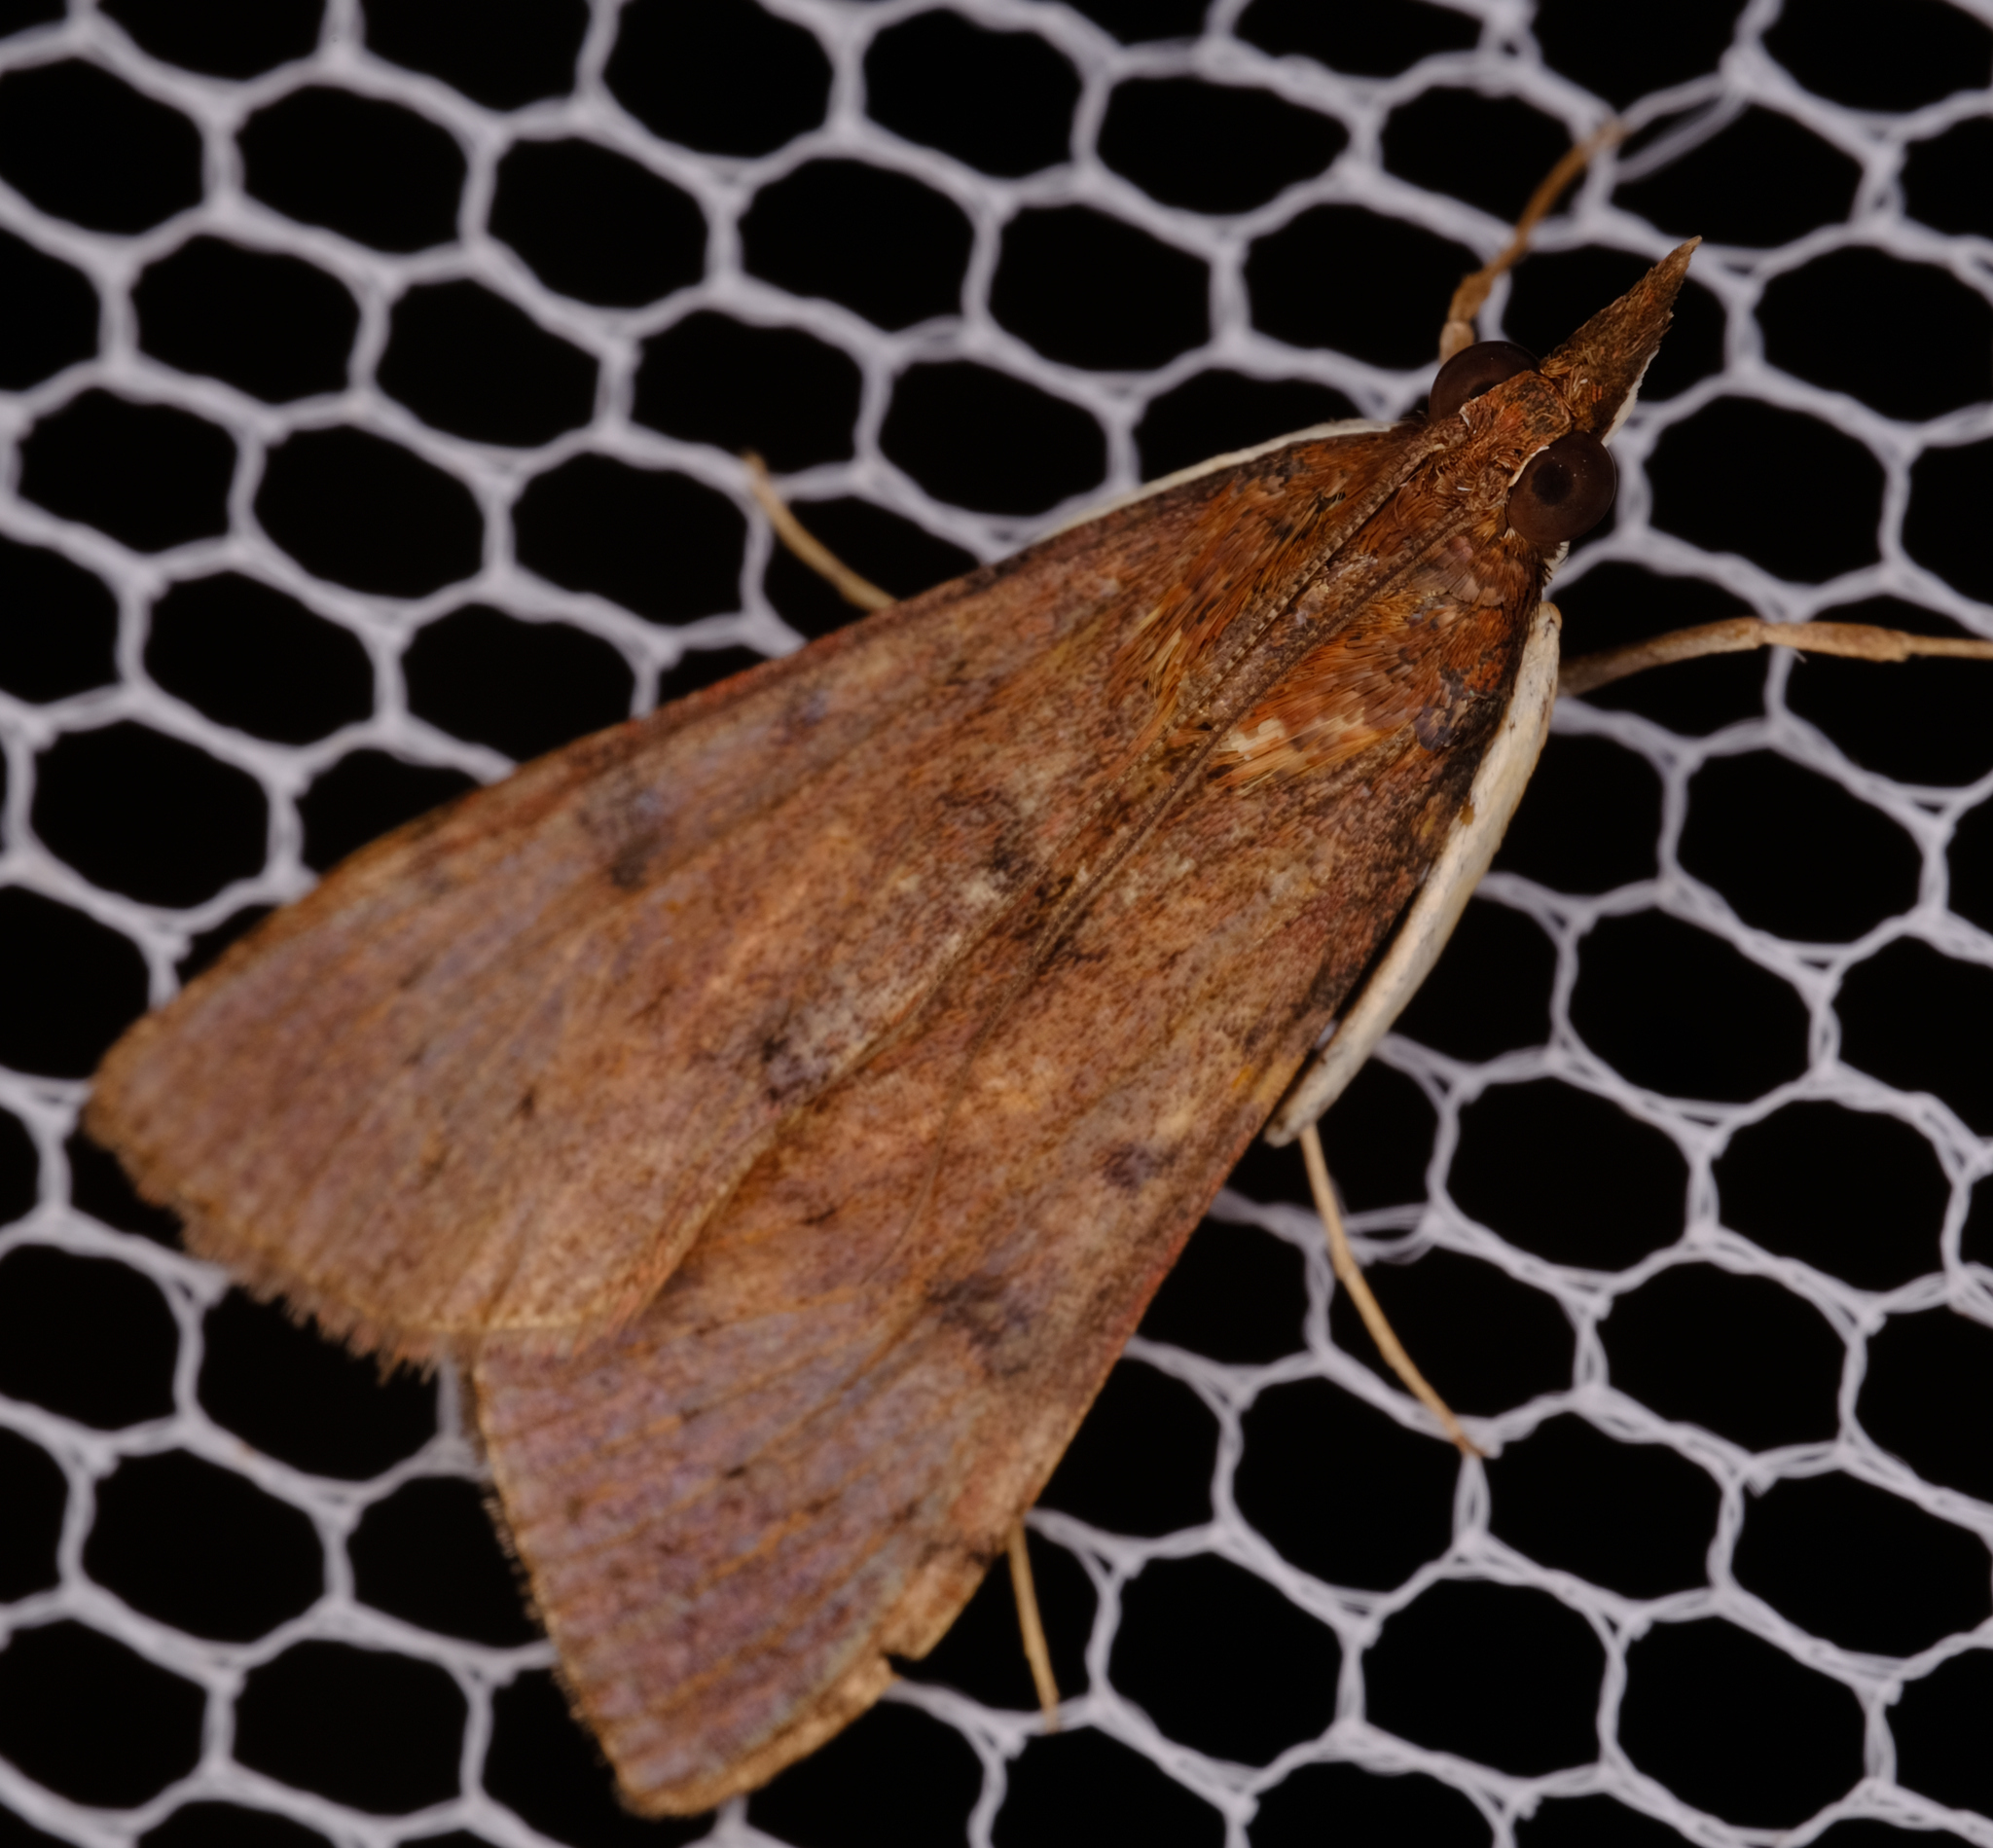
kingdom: Animalia
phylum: Arthropoda
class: Insecta
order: Lepidoptera
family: Crambidae
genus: Uresiphita
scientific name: Uresiphita ornithopteralis
